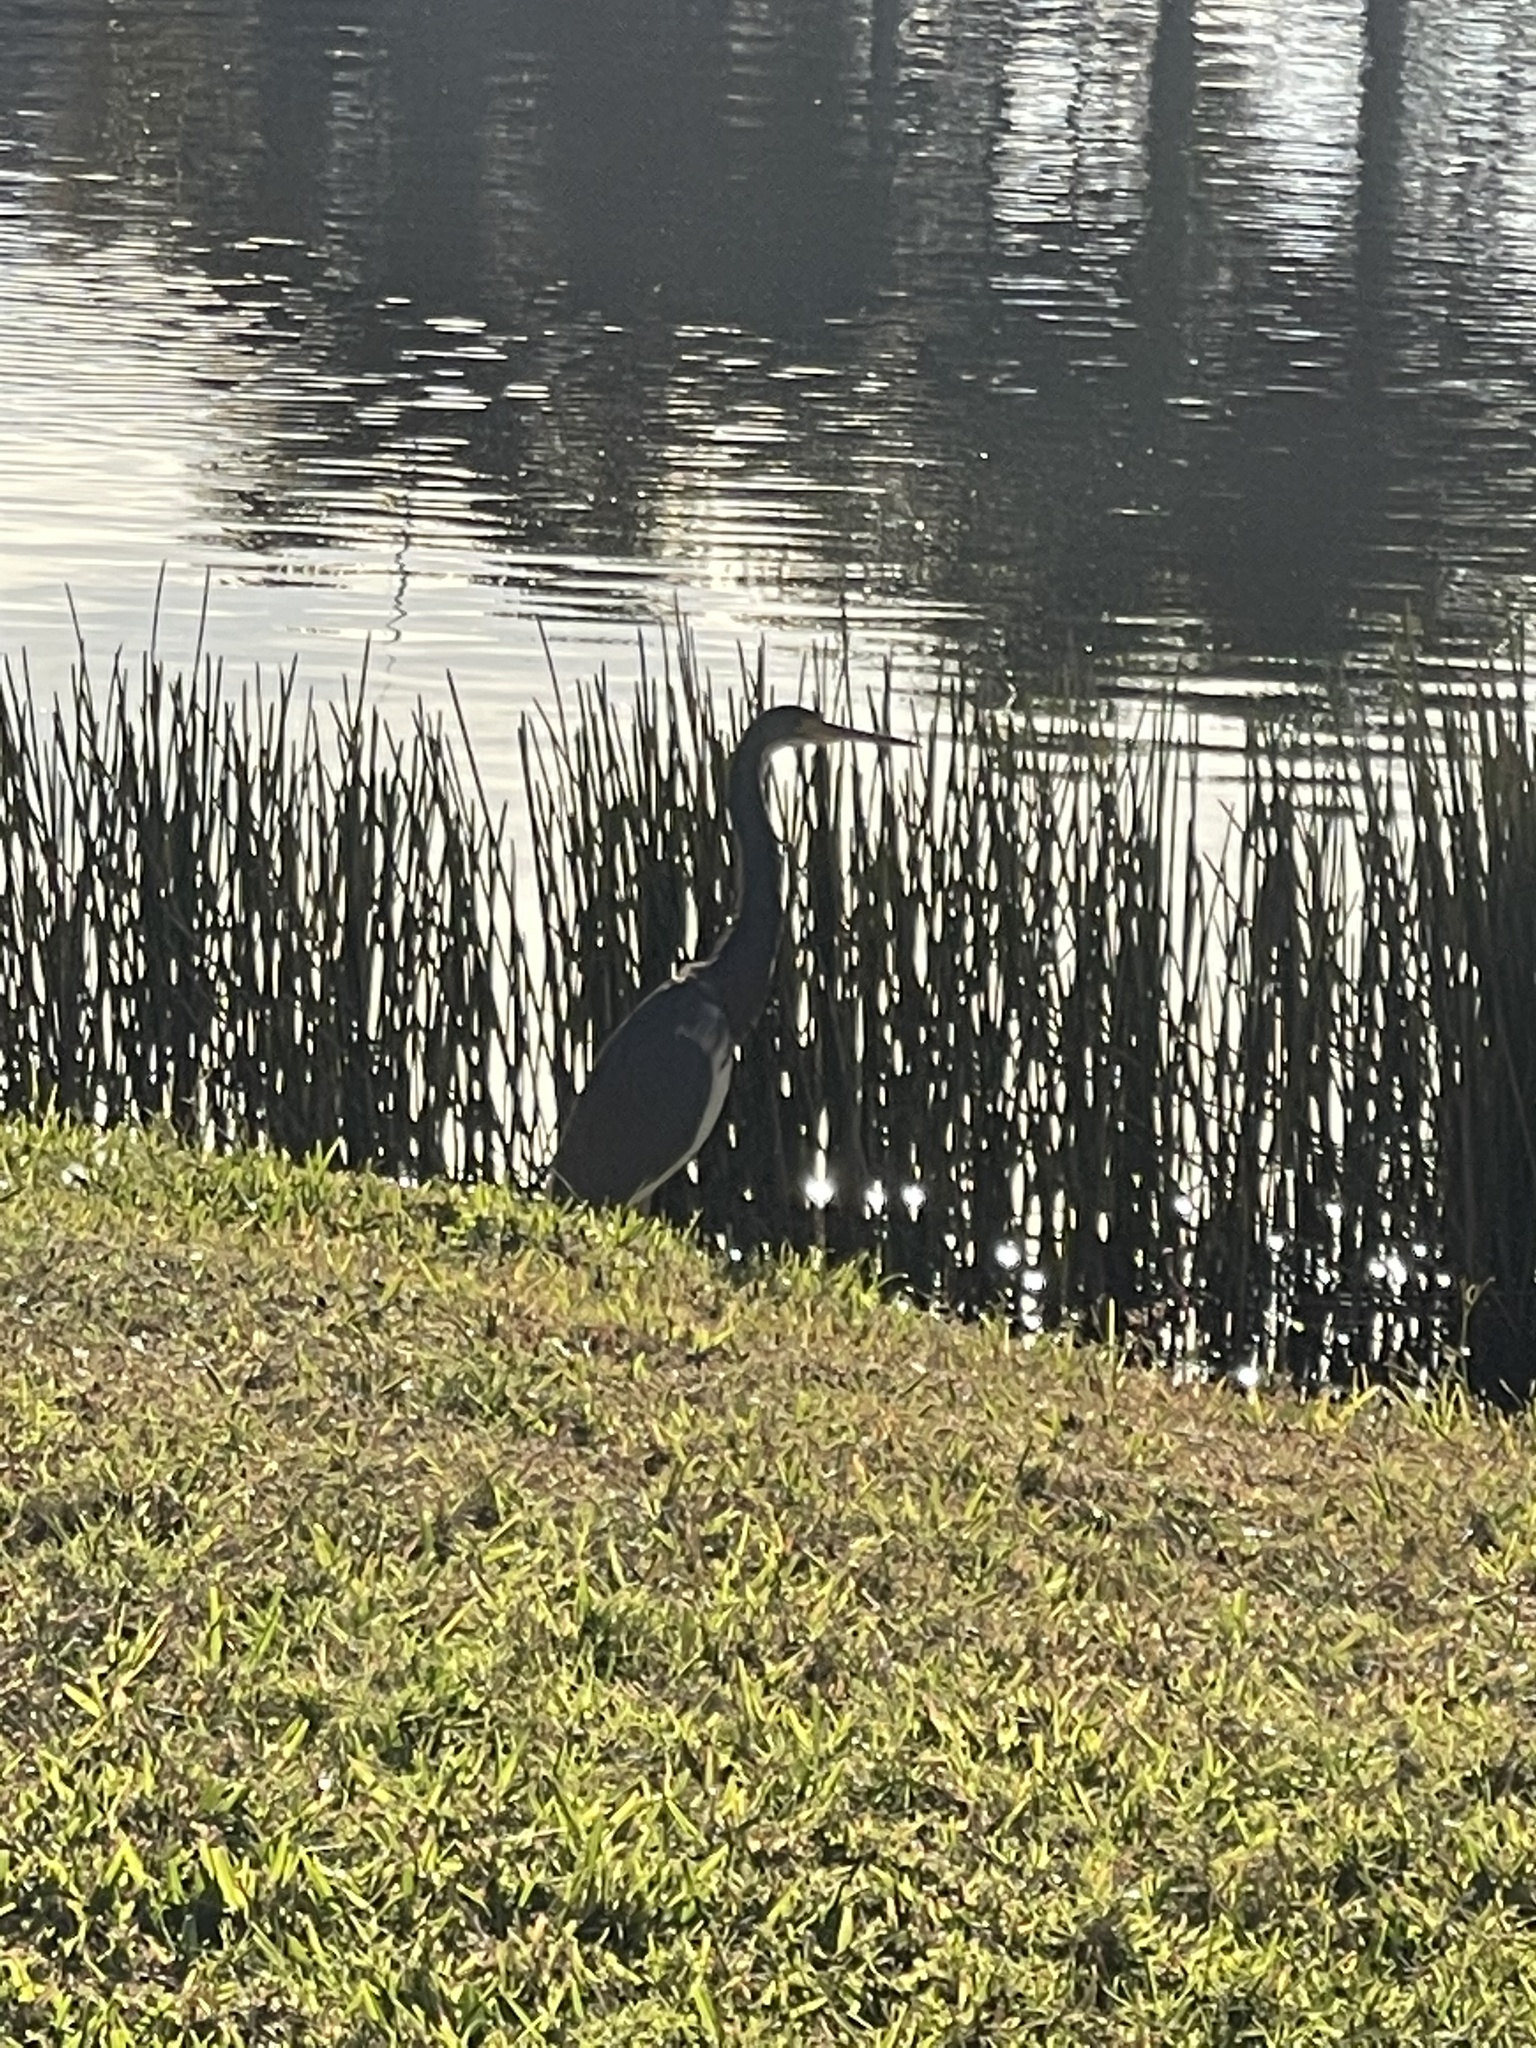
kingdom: Animalia
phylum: Chordata
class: Aves
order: Pelecaniformes
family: Ardeidae
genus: Egretta
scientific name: Egretta tricolor
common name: Tricolored heron
